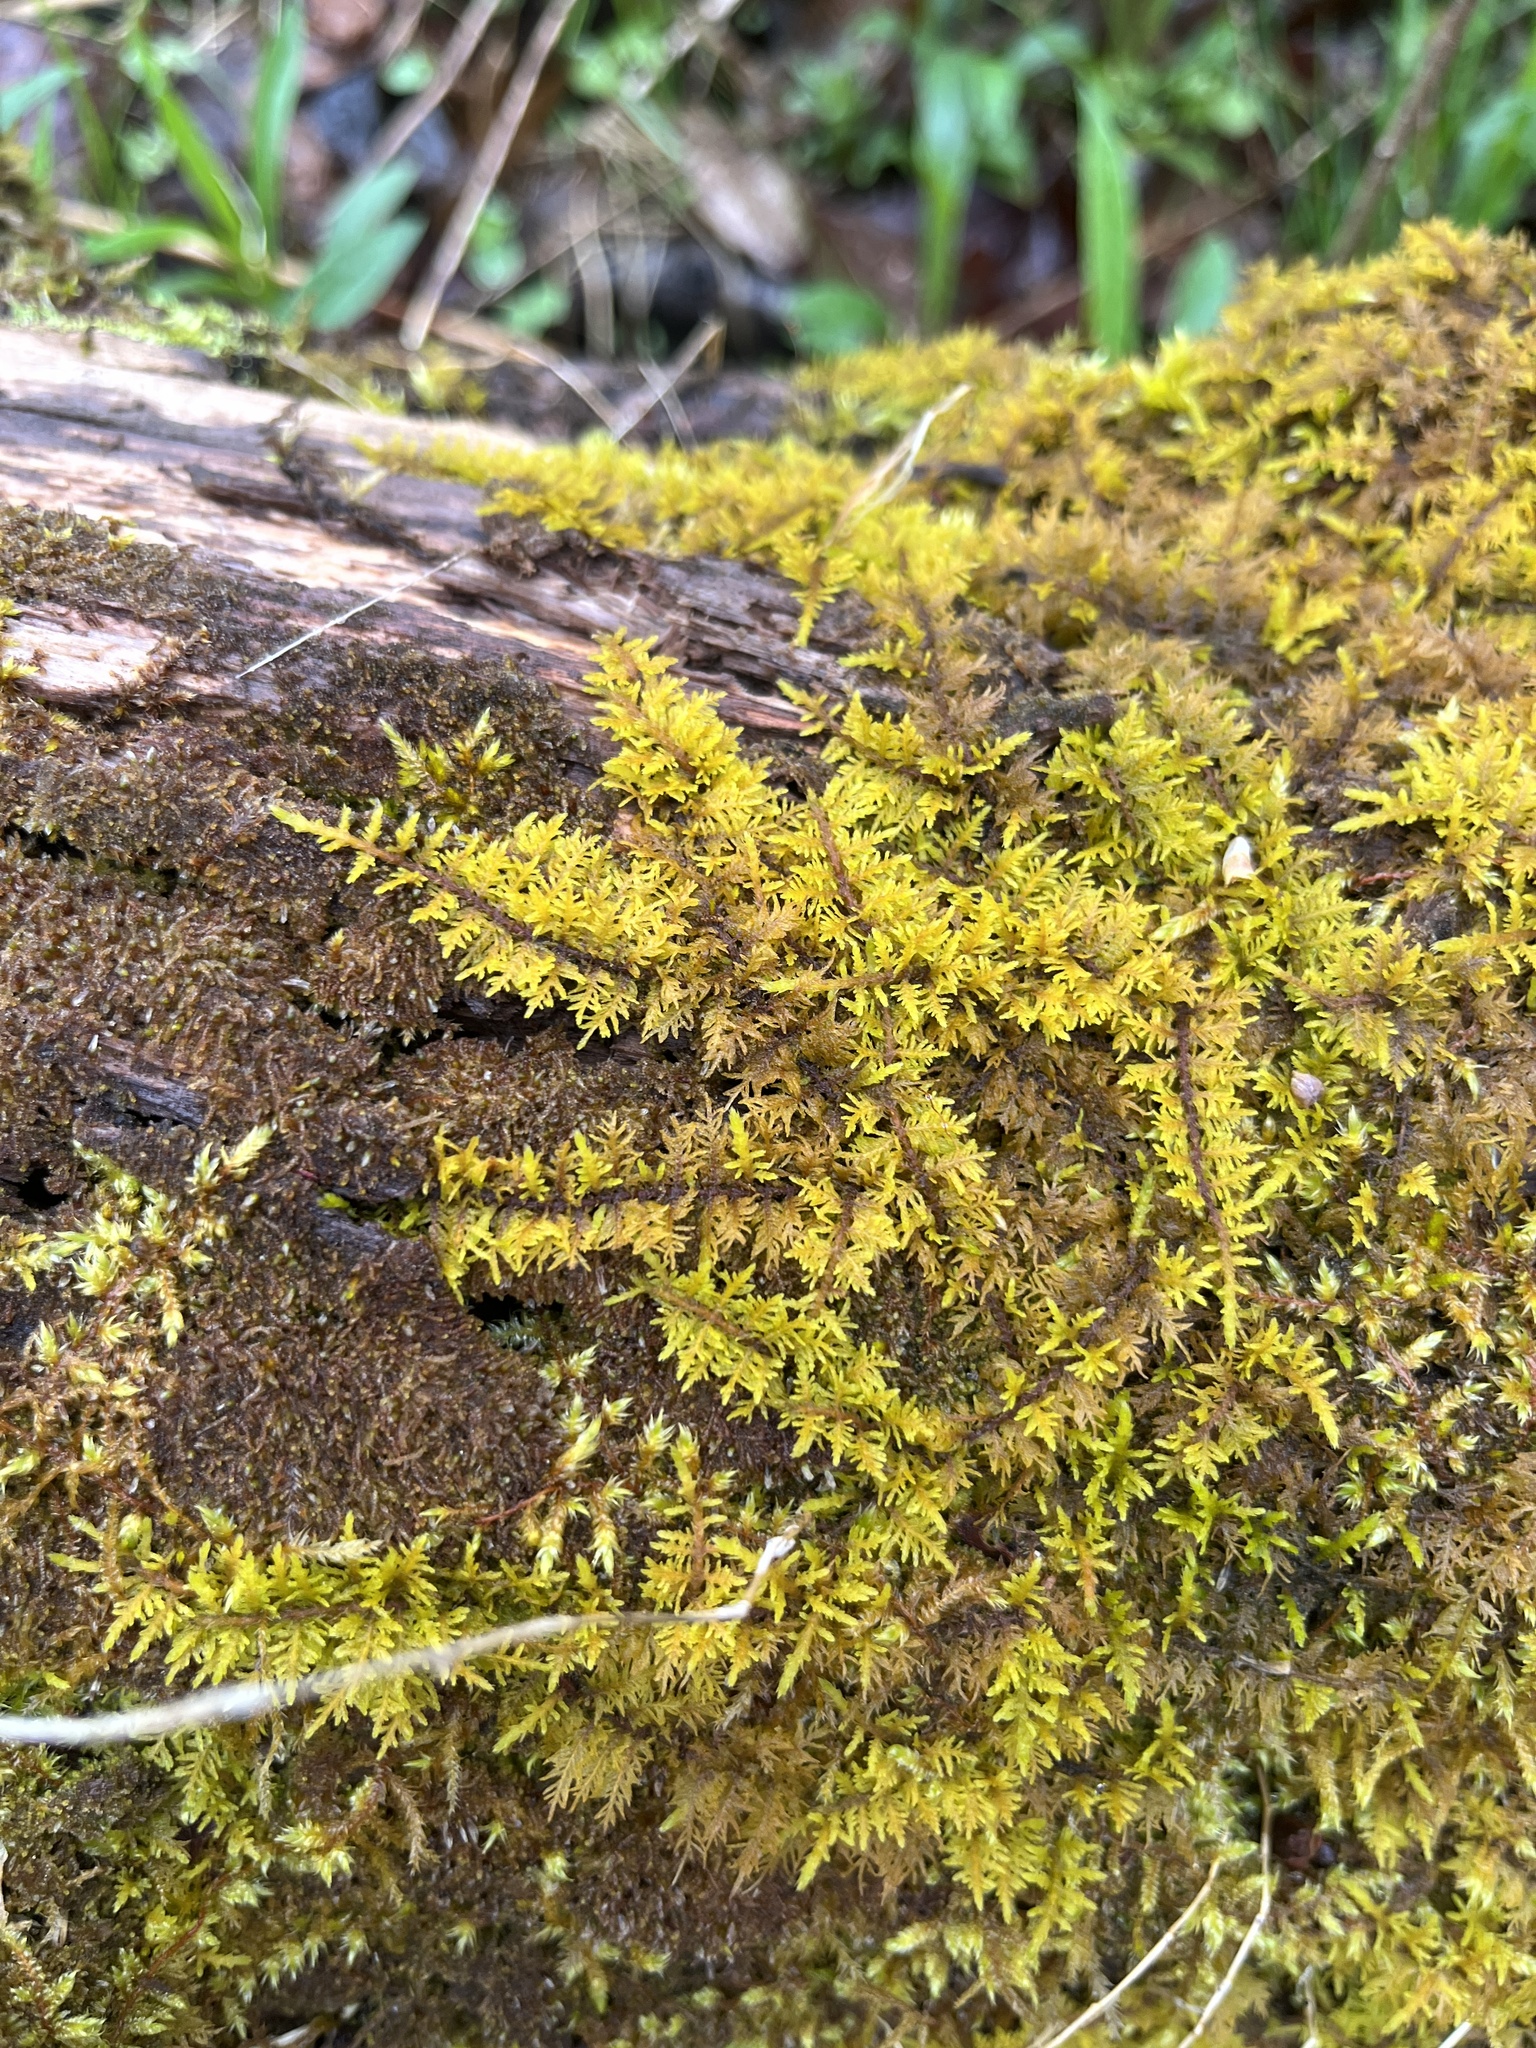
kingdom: Plantae
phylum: Bryophyta
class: Bryopsida
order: Hypnales
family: Thuidiaceae
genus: Thuidium
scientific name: Thuidium delicatulum
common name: Delicate fern moss
